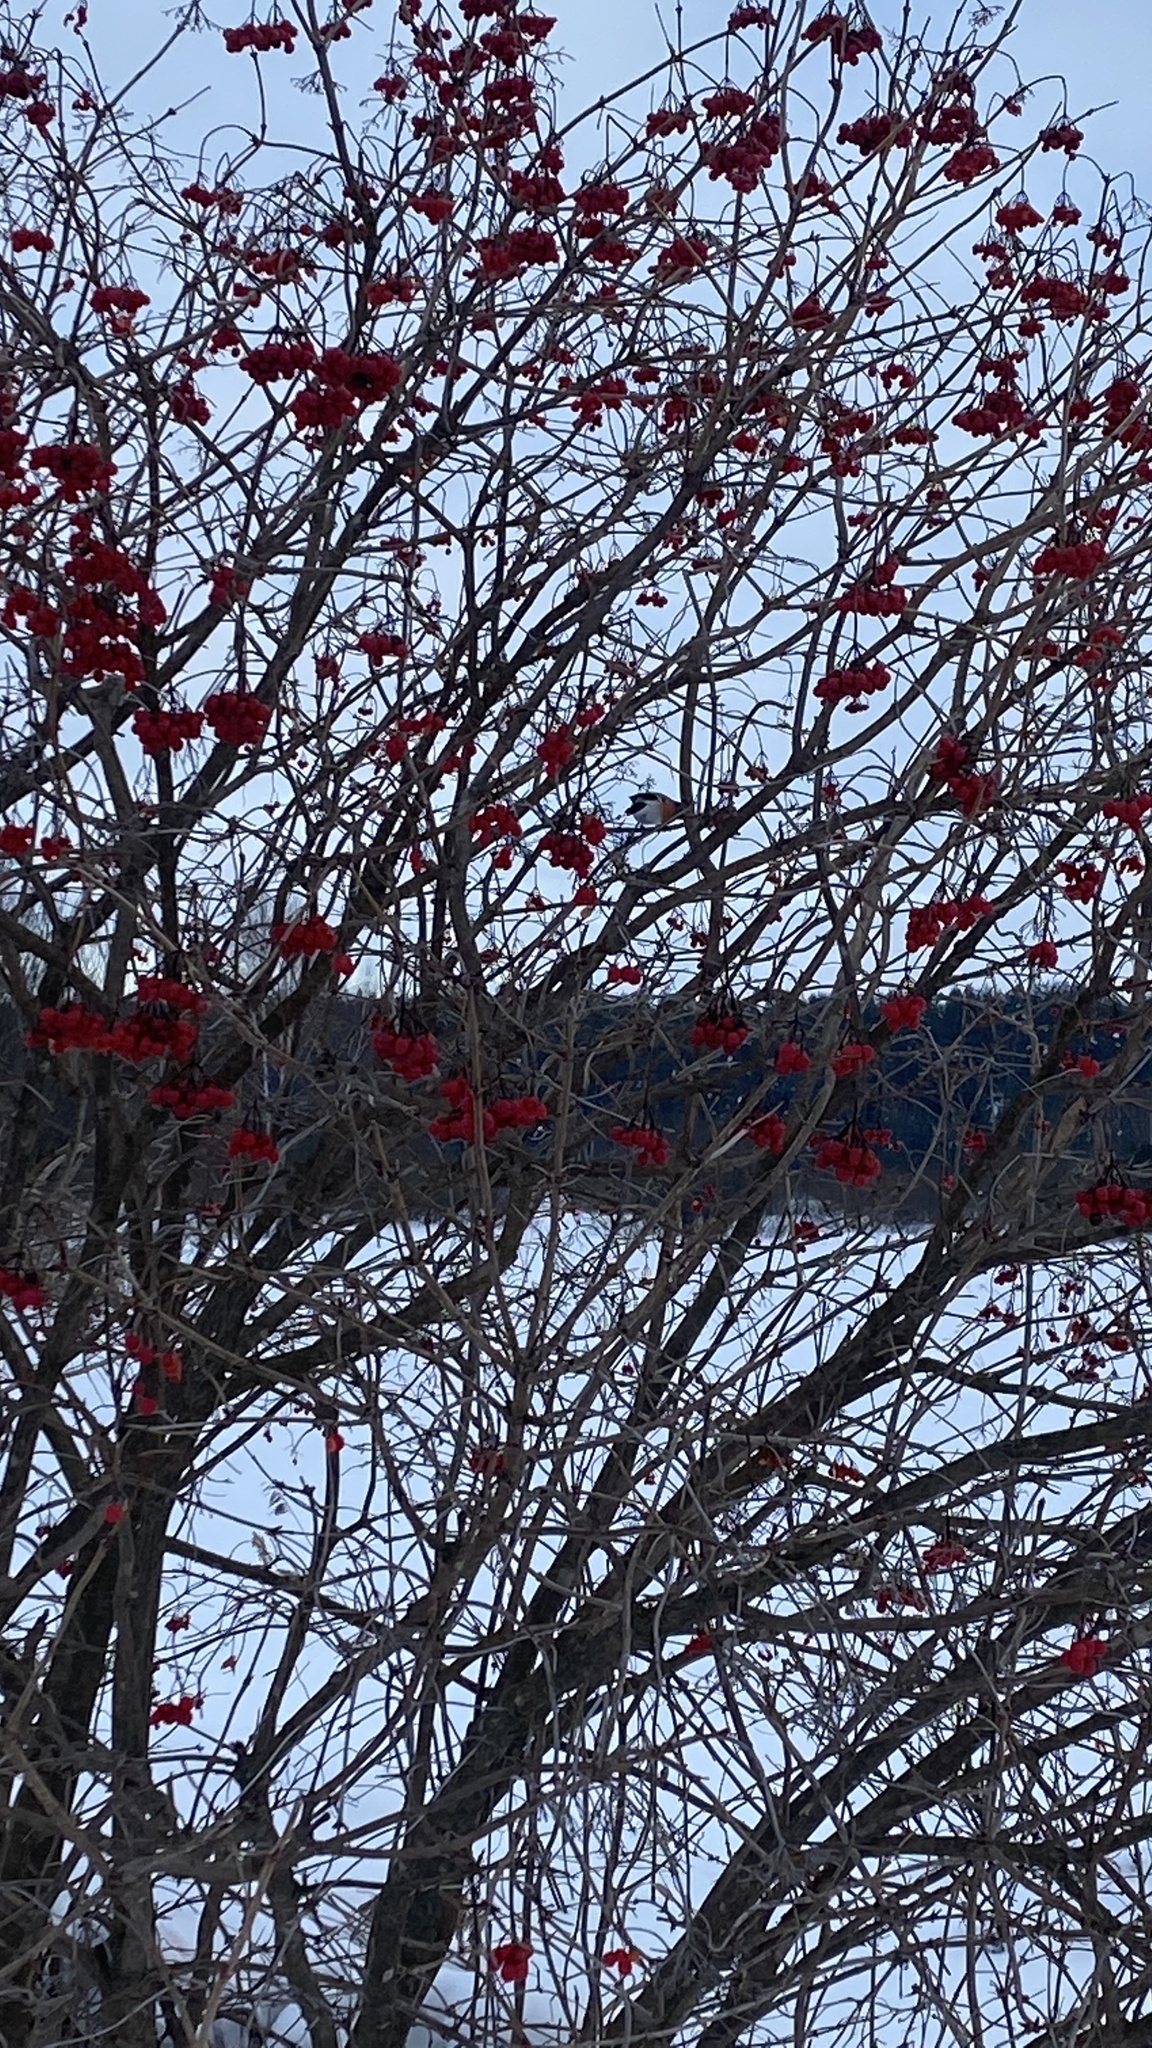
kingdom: Animalia
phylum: Chordata
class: Aves
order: Passeriformes
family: Fringillidae
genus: Pyrrhula
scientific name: Pyrrhula pyrrhula
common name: Eurasian bullfinch
